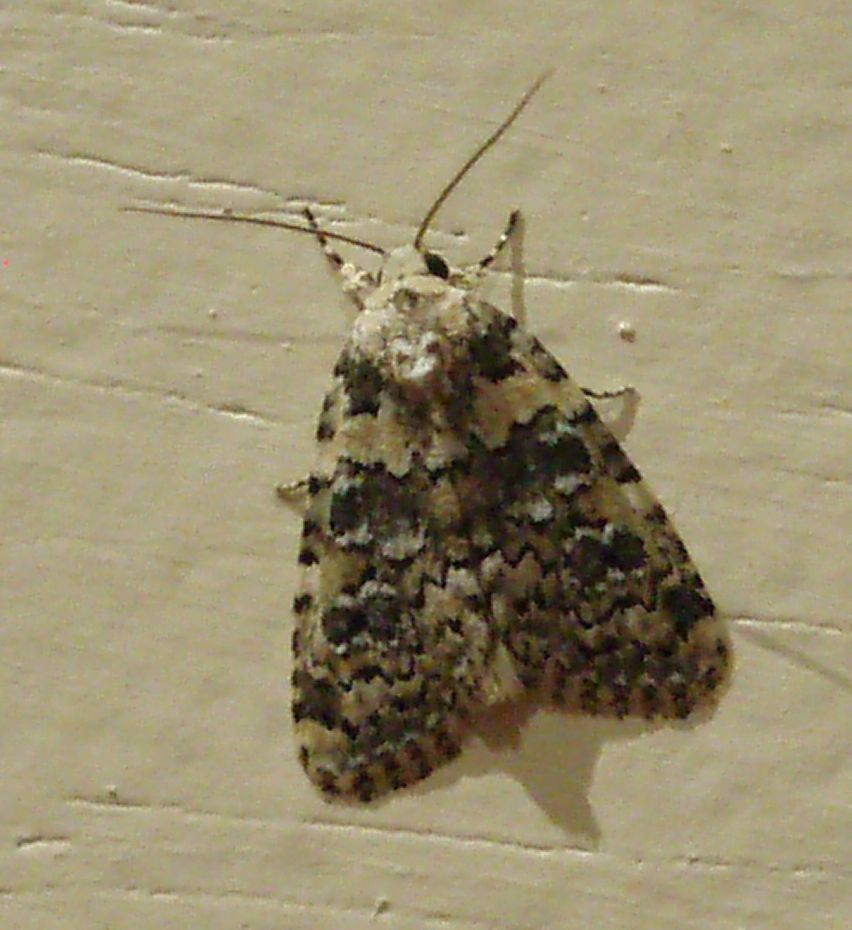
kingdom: Animalia
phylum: Arthropoda
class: Insecta
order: Lepidoptera
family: Noctuidae
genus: Bryophila
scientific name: Bryophila domestica
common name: Marbled beauty
